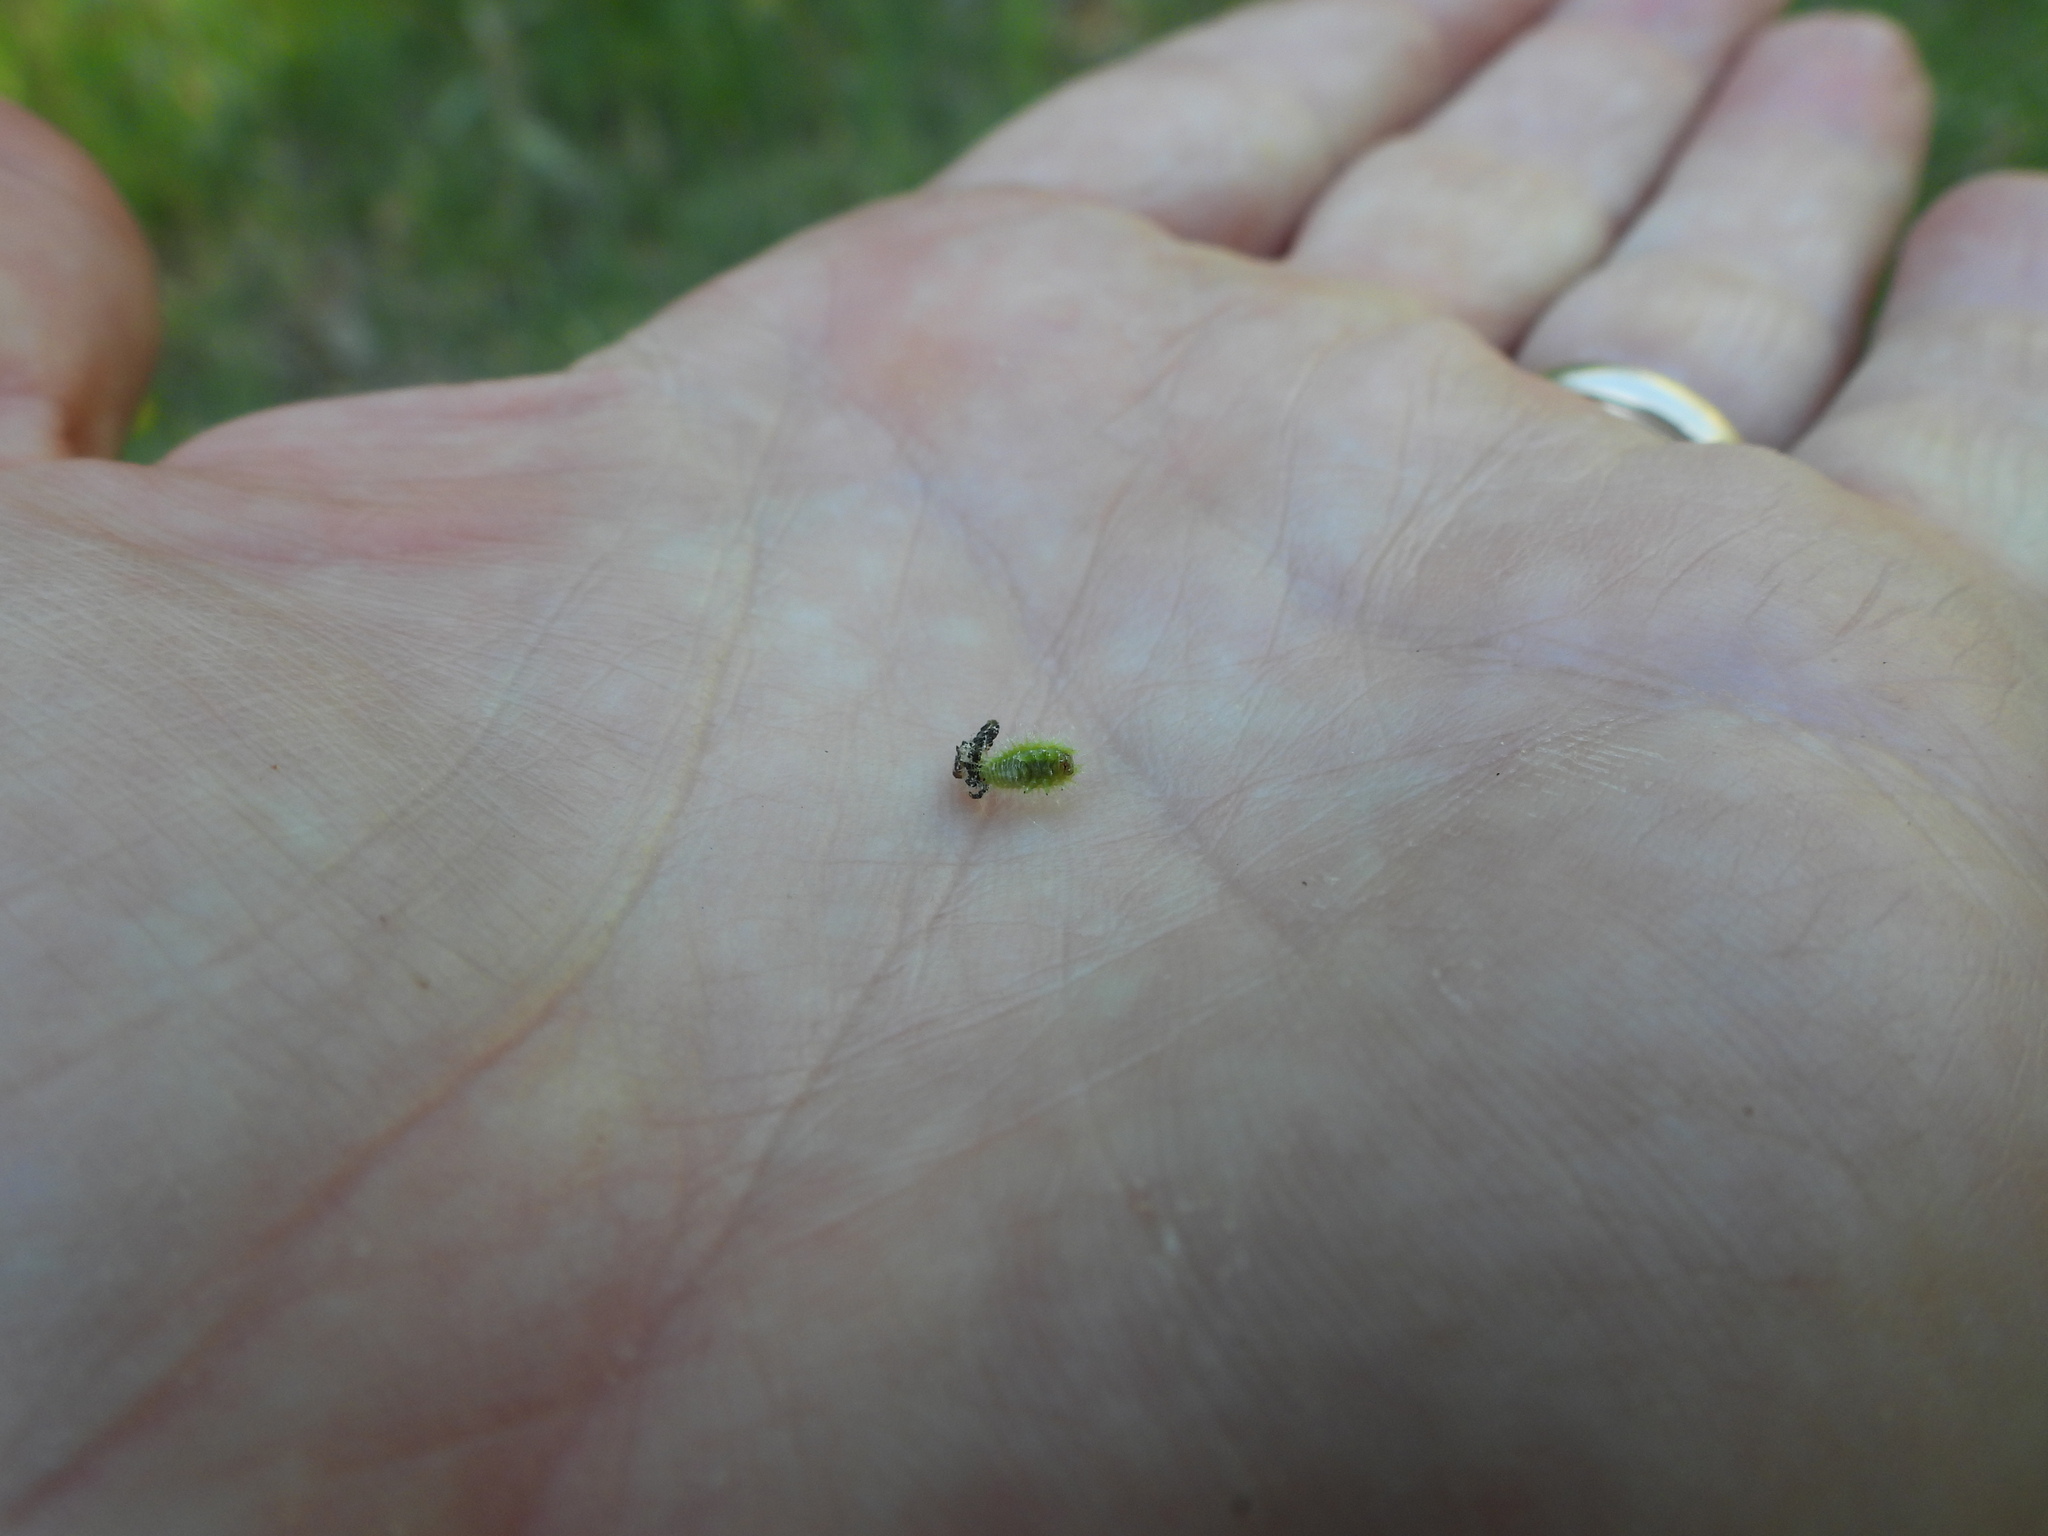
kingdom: Animalia
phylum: Arthropoda
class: Insecta
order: Coleoptera
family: Chrysomelidae
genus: Gratiana
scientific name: Gratiana pallidula
